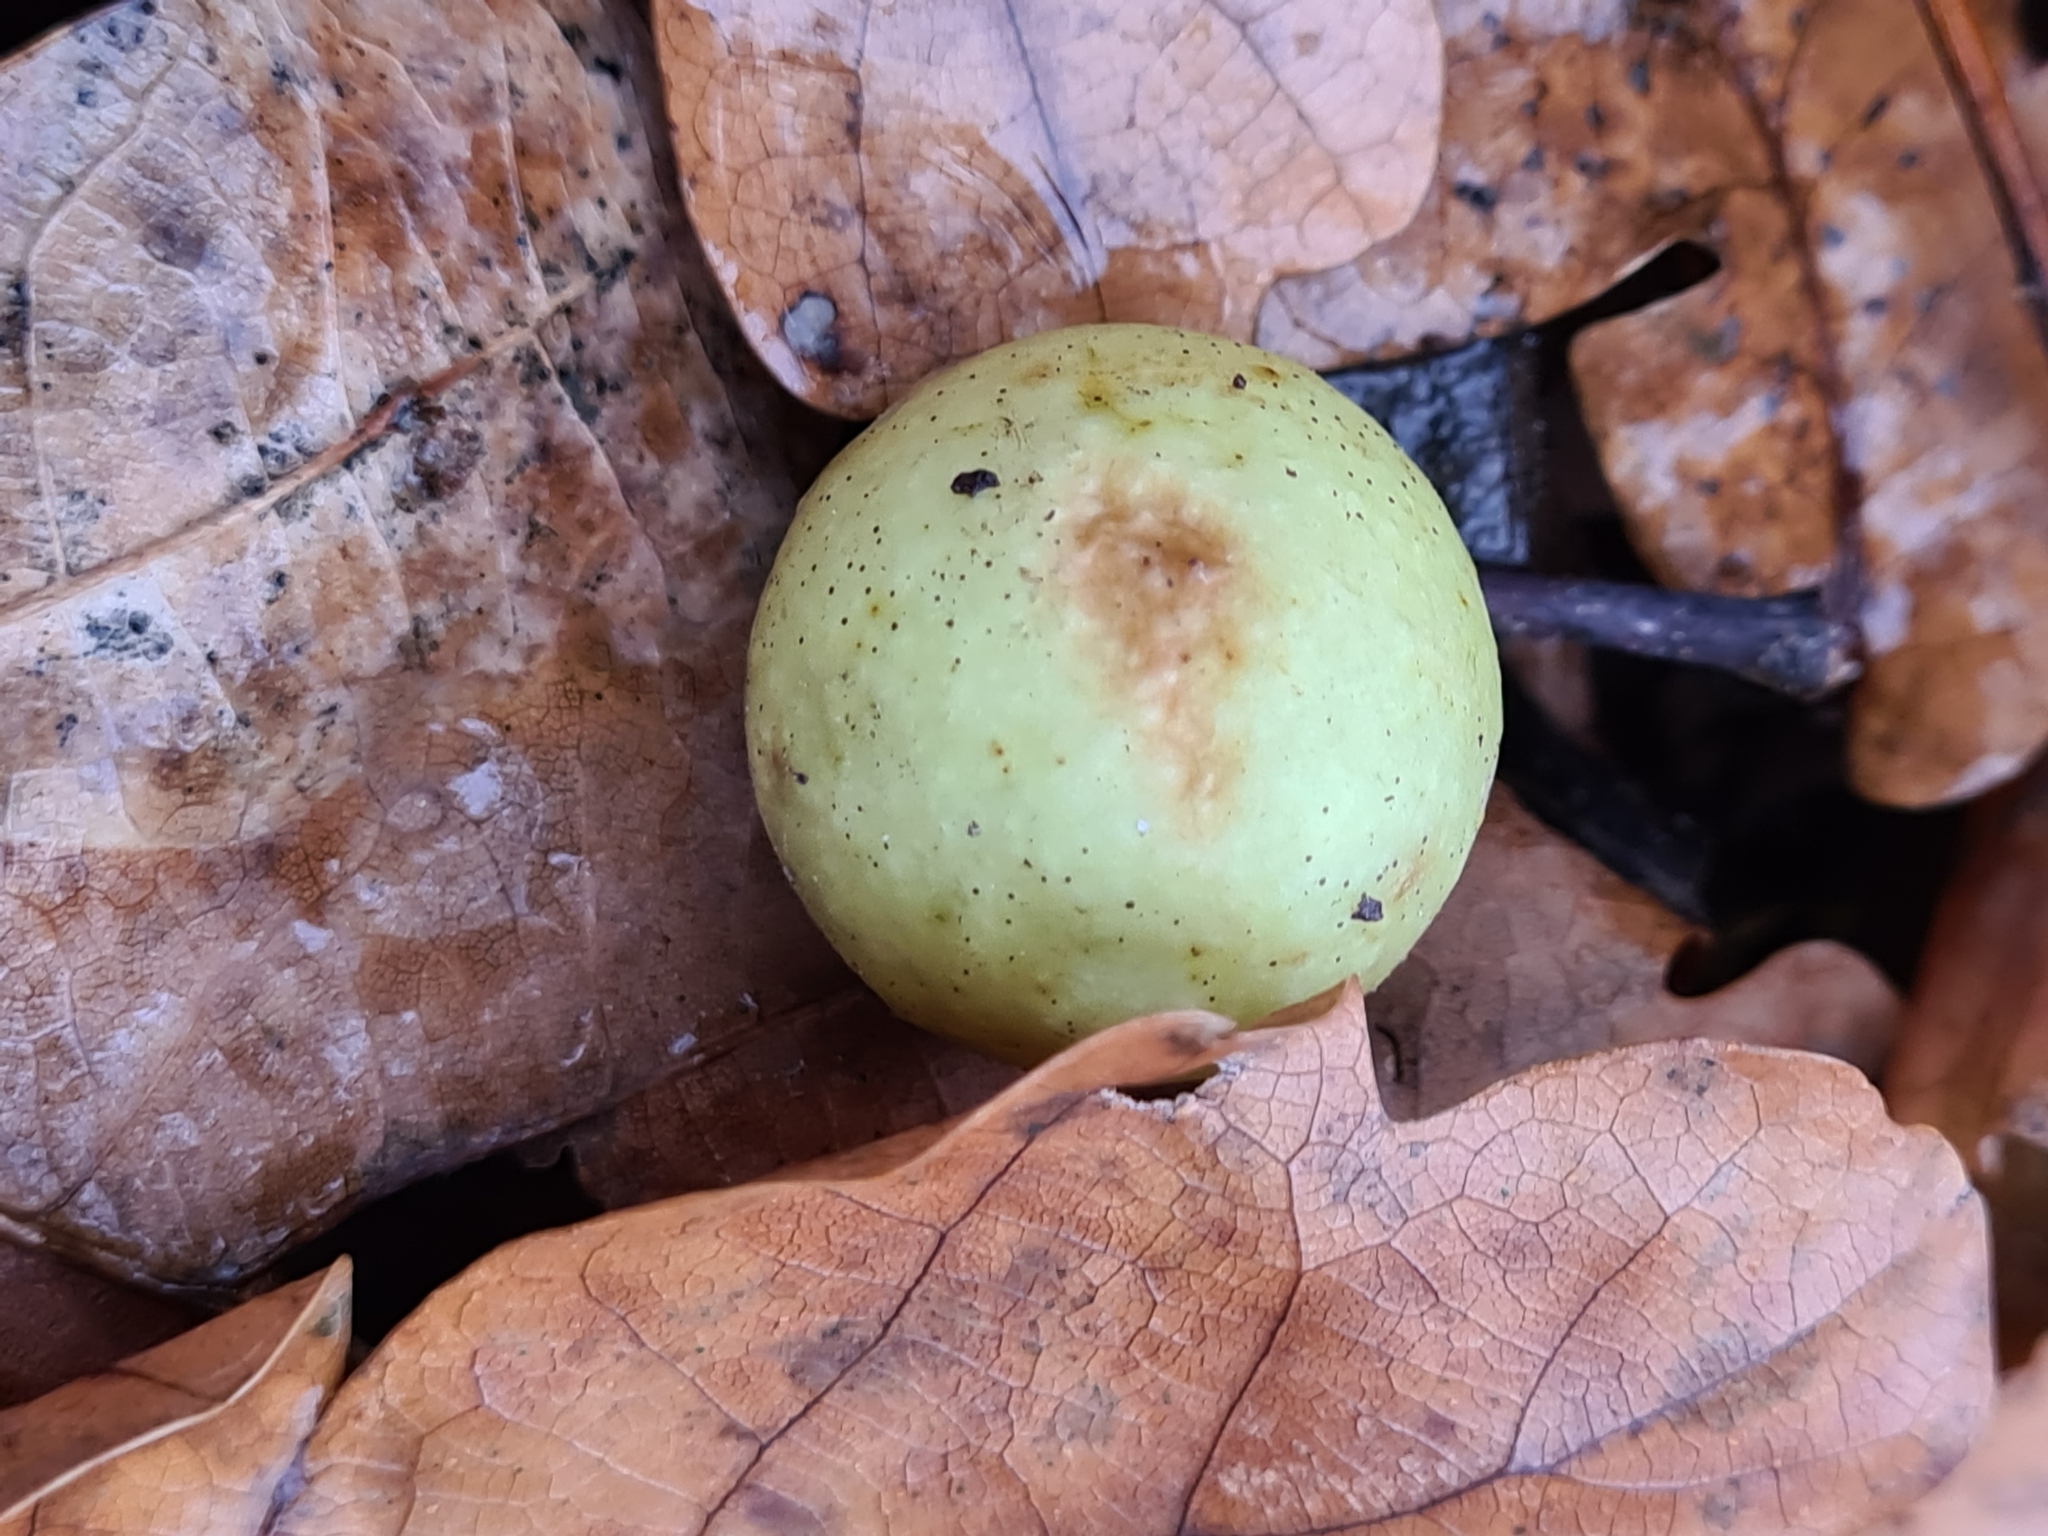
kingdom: Animalia
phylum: Arthropoda
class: Insecta
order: Hymenoptera
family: Cynipidae
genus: Cynips
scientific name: Cynips quercusfolii
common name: Cherry gall
